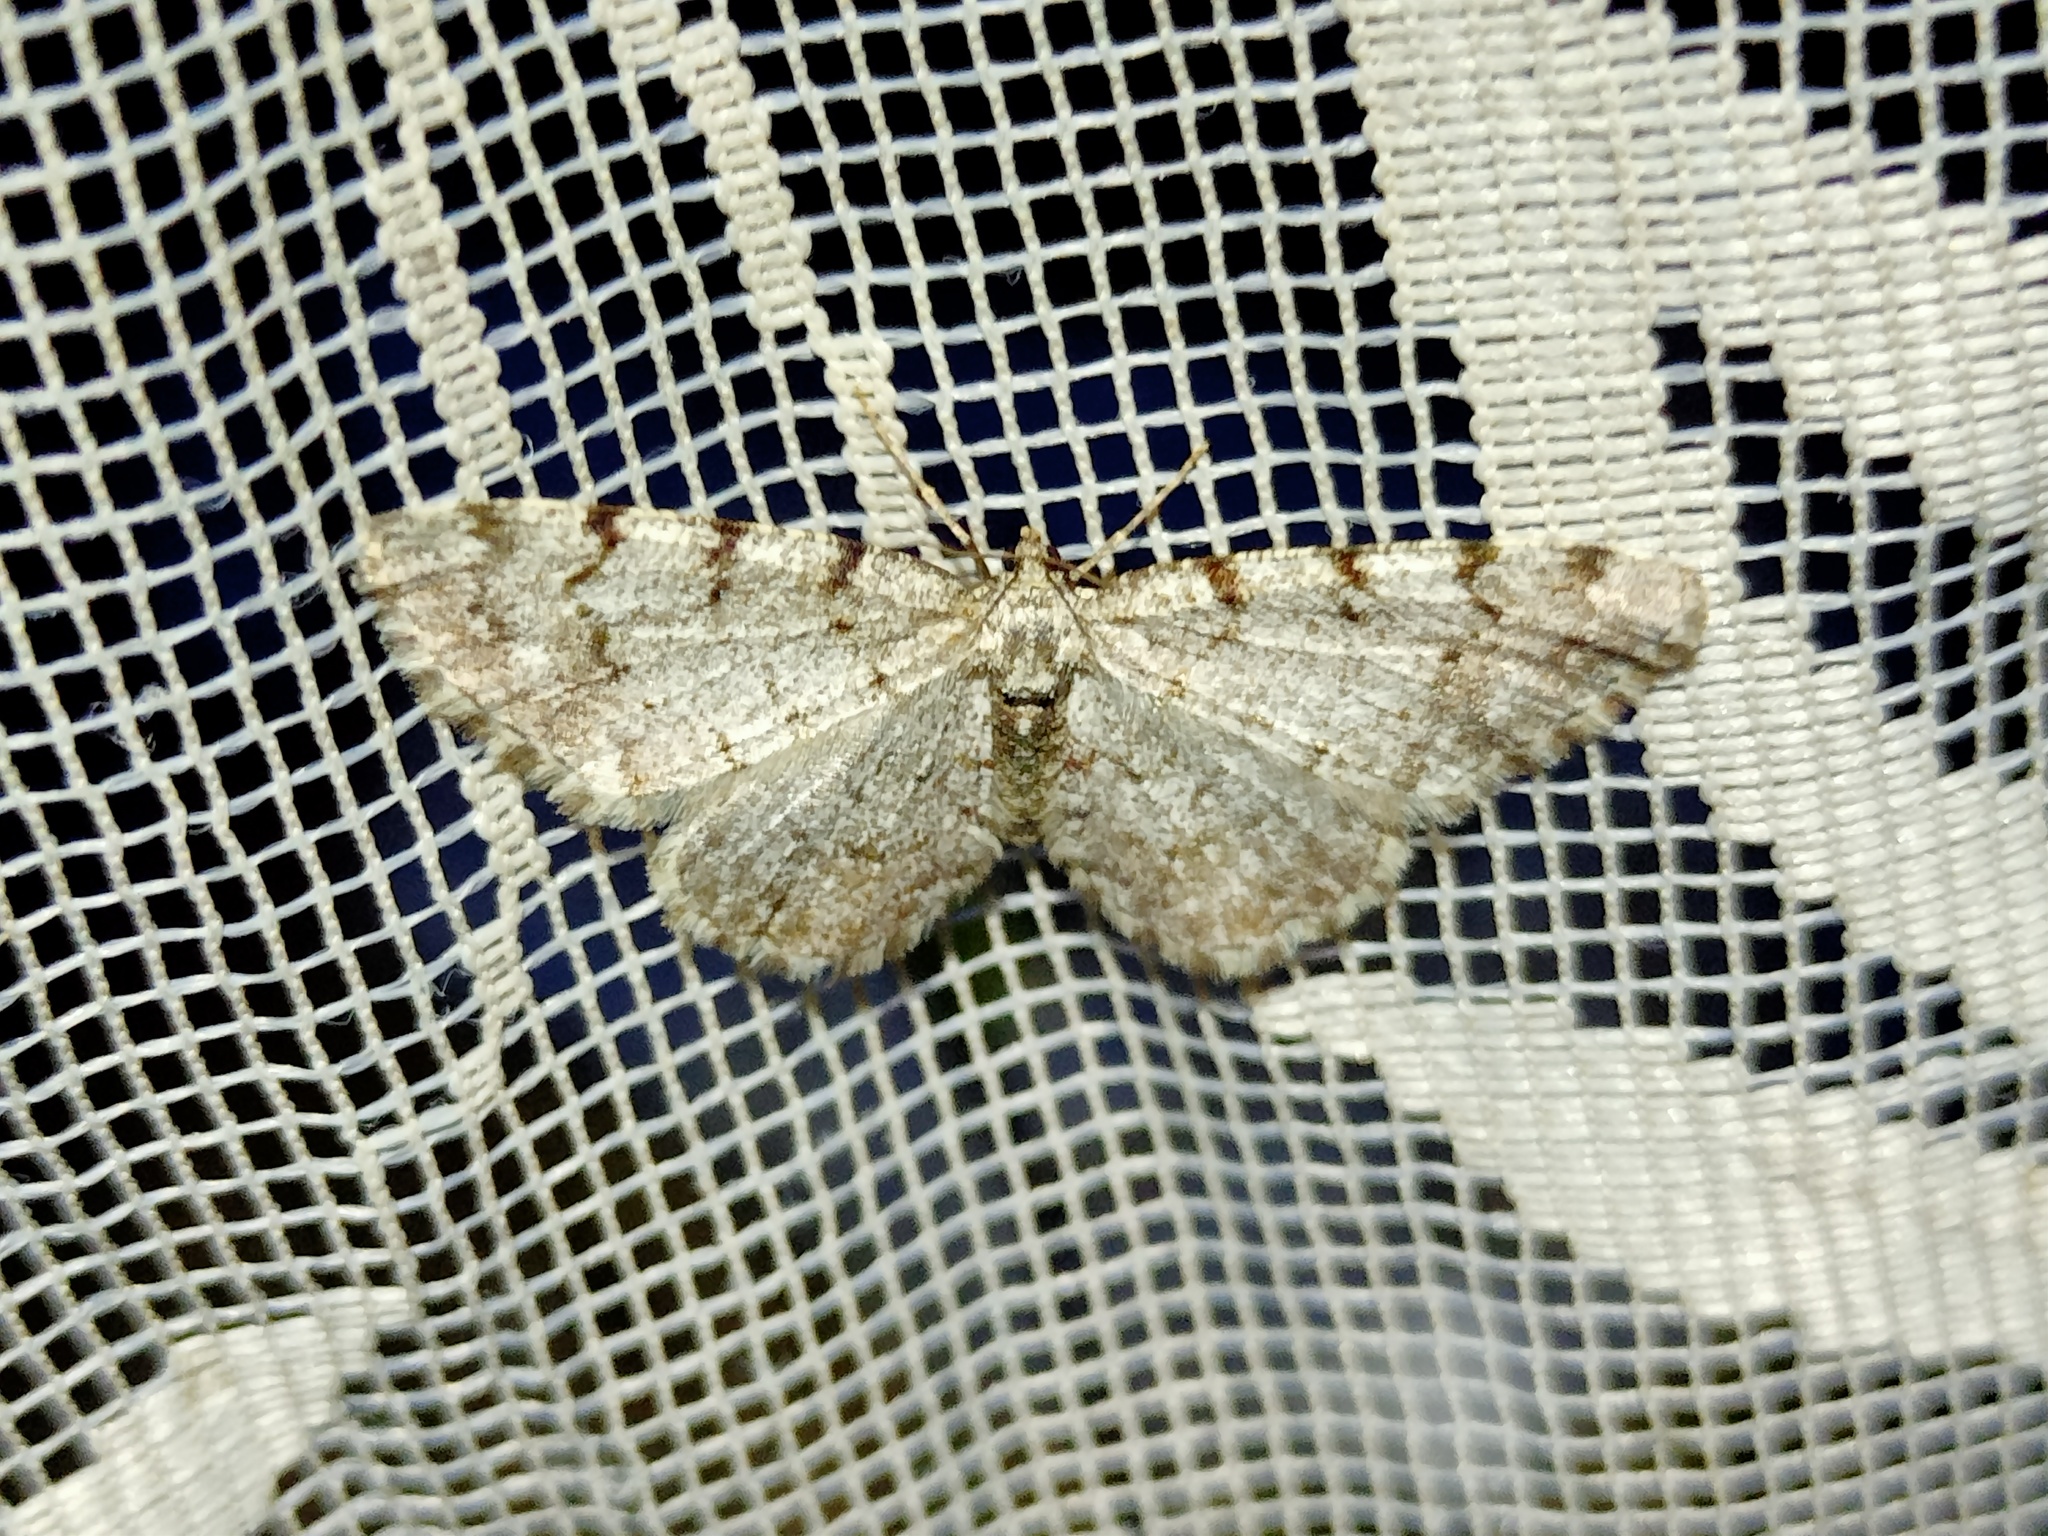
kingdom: Animalia
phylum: Arthropoda
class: Insecta
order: Lepidoptera
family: Geometridae
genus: Aethalura
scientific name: Aethalura punctulata
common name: Grey birch
